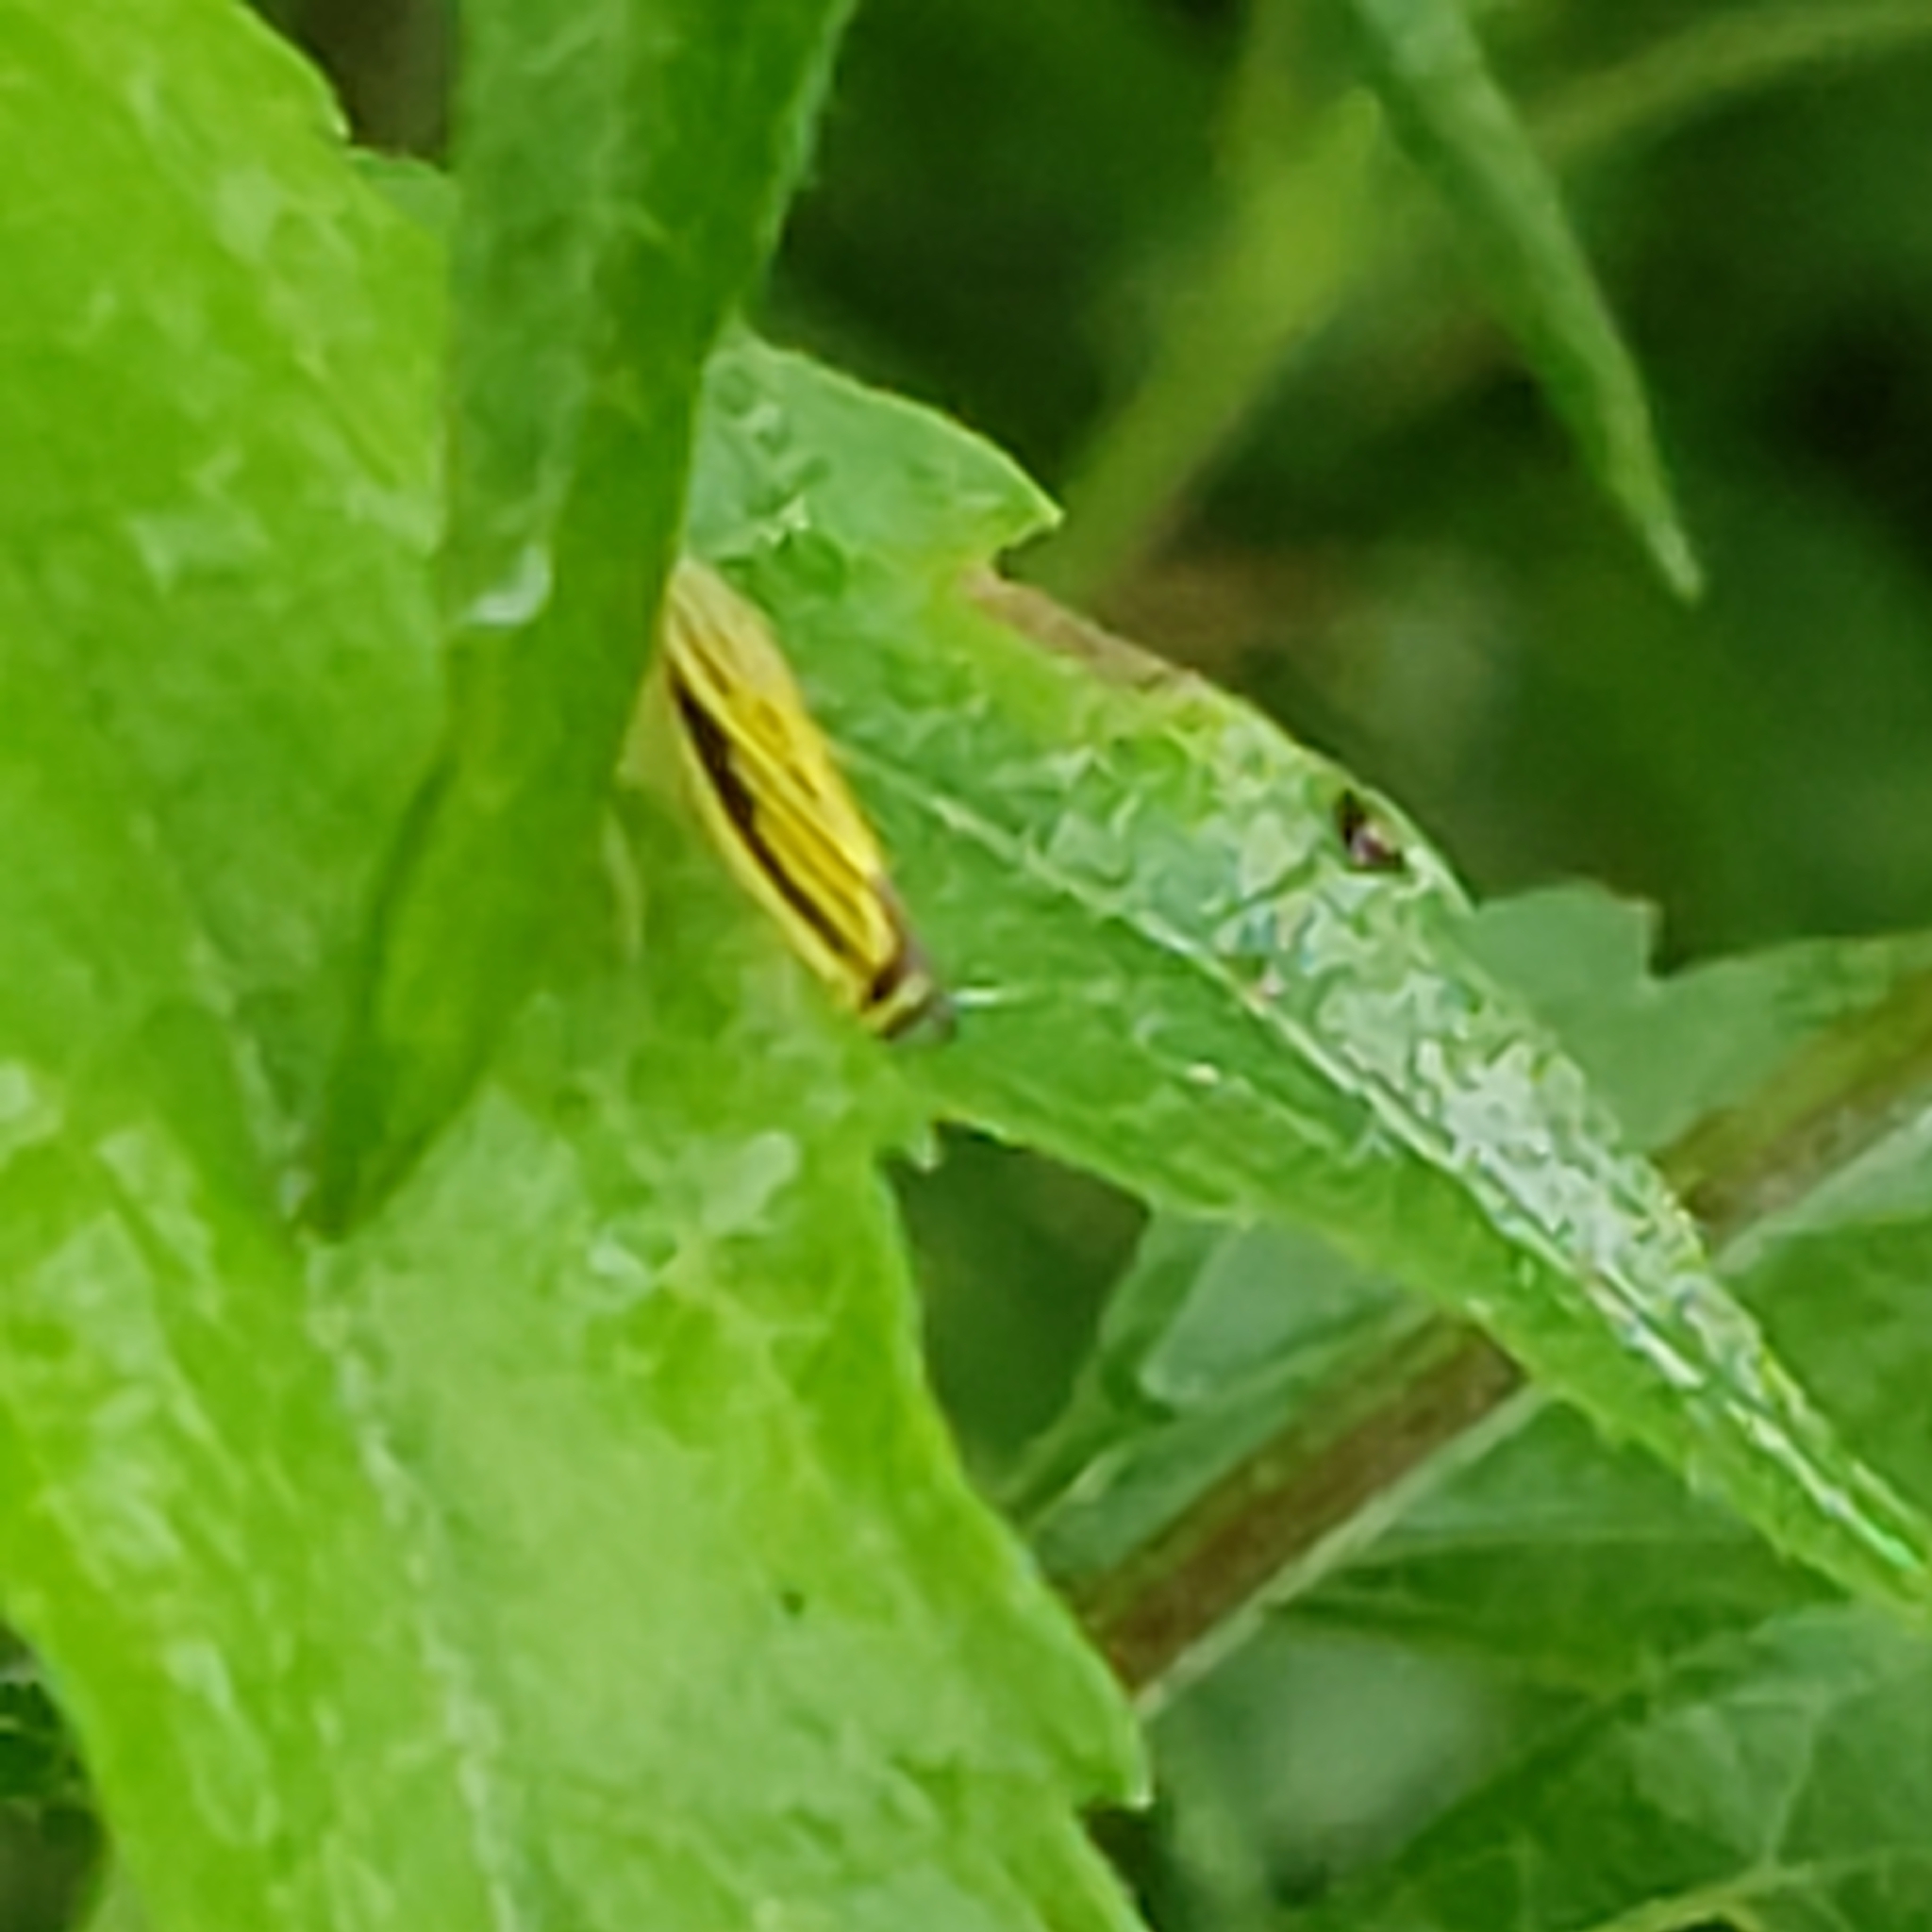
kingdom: Animalia
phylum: Arthropoda
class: Insecta
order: Hemiptera
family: Cicadellidae
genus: Sibovia
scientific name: Sibovia occatoria
